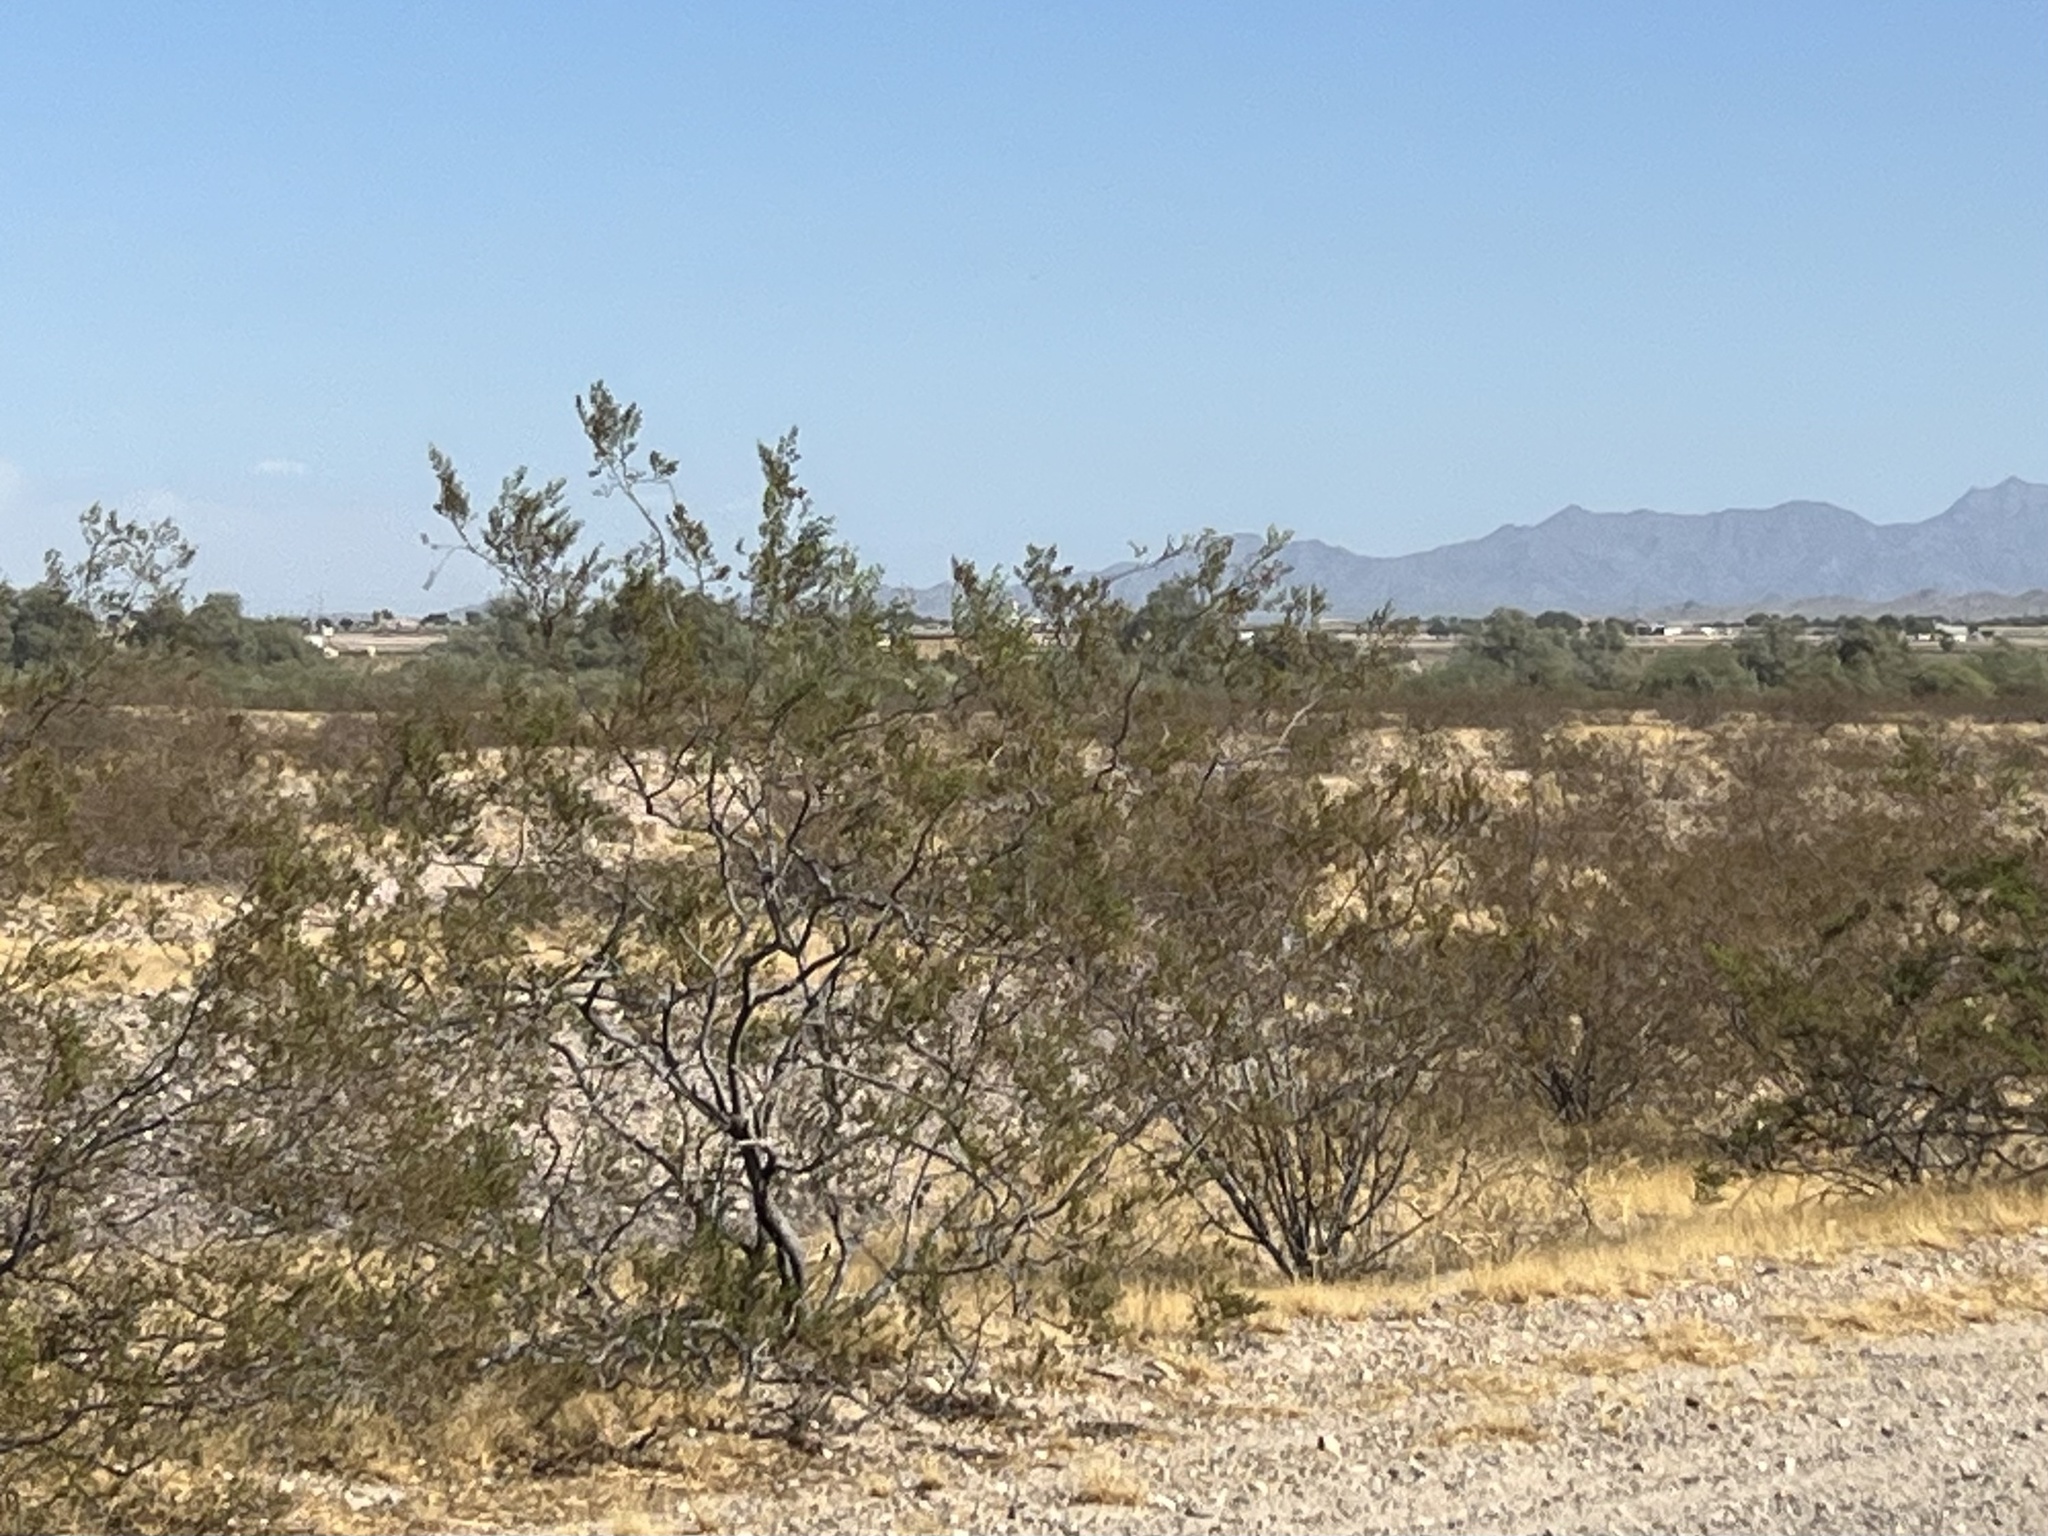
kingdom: Plantae
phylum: Tracheophyta
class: Magnoliopsida
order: Zygophyllales
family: Zygophyllaceae
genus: Larrea
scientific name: Larrea tridentata
